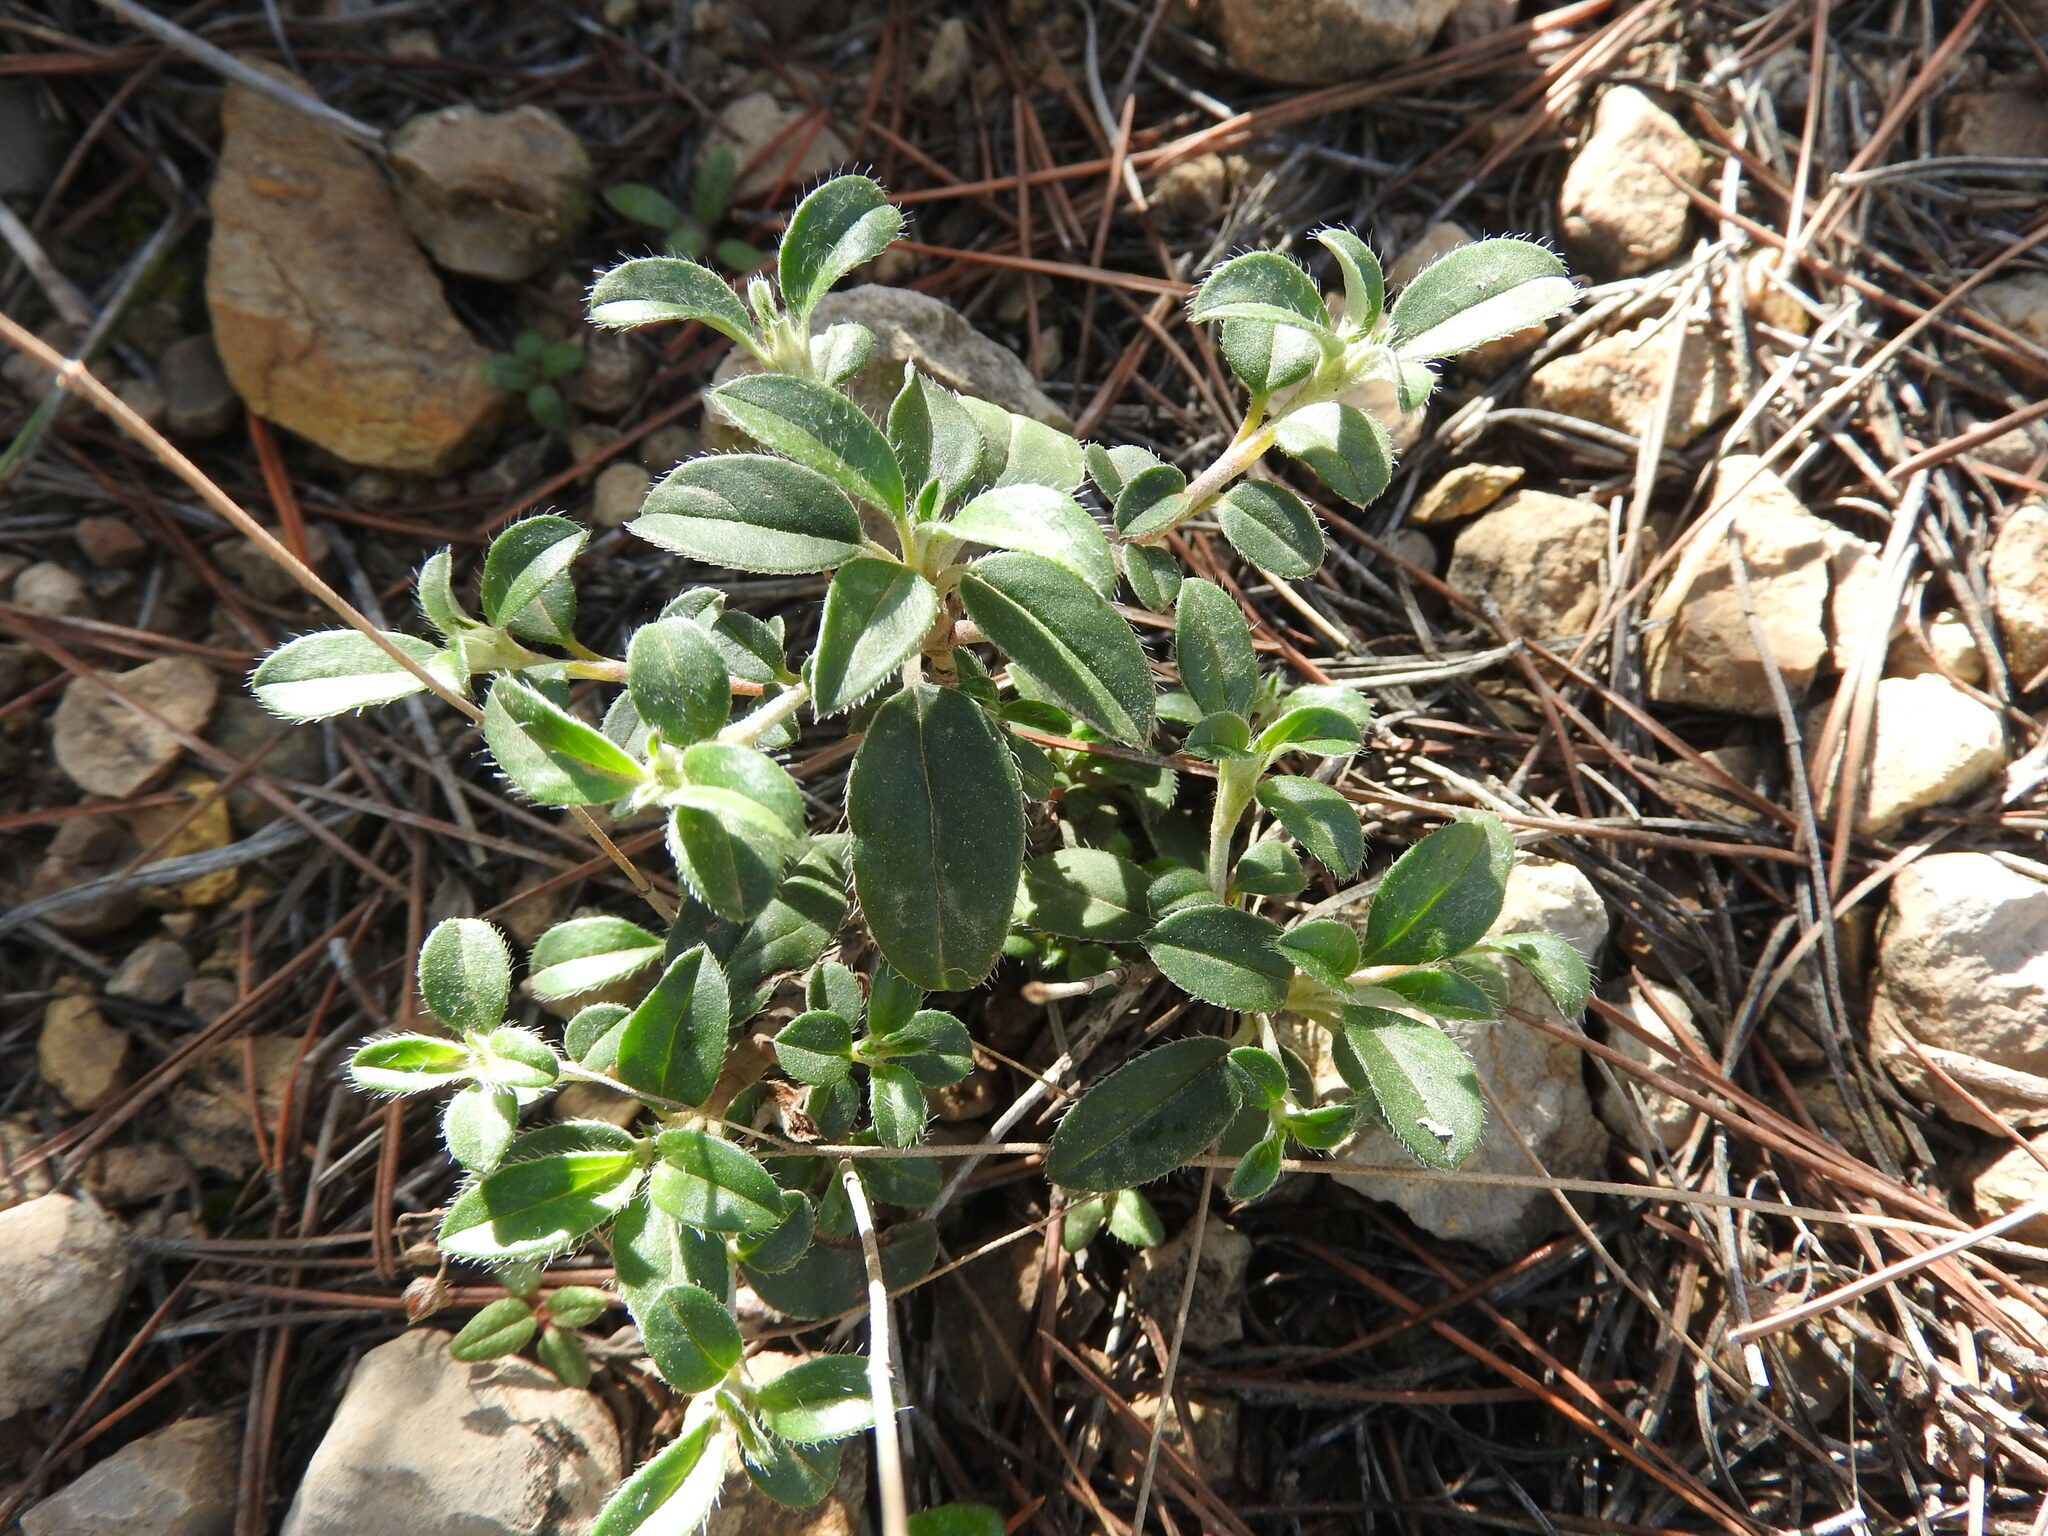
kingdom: Plantae
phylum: Tracheophyta
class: Magnoliopsida
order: Malvales
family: Cistaceae
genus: Helianthemum
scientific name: Helianthemum cinereum
